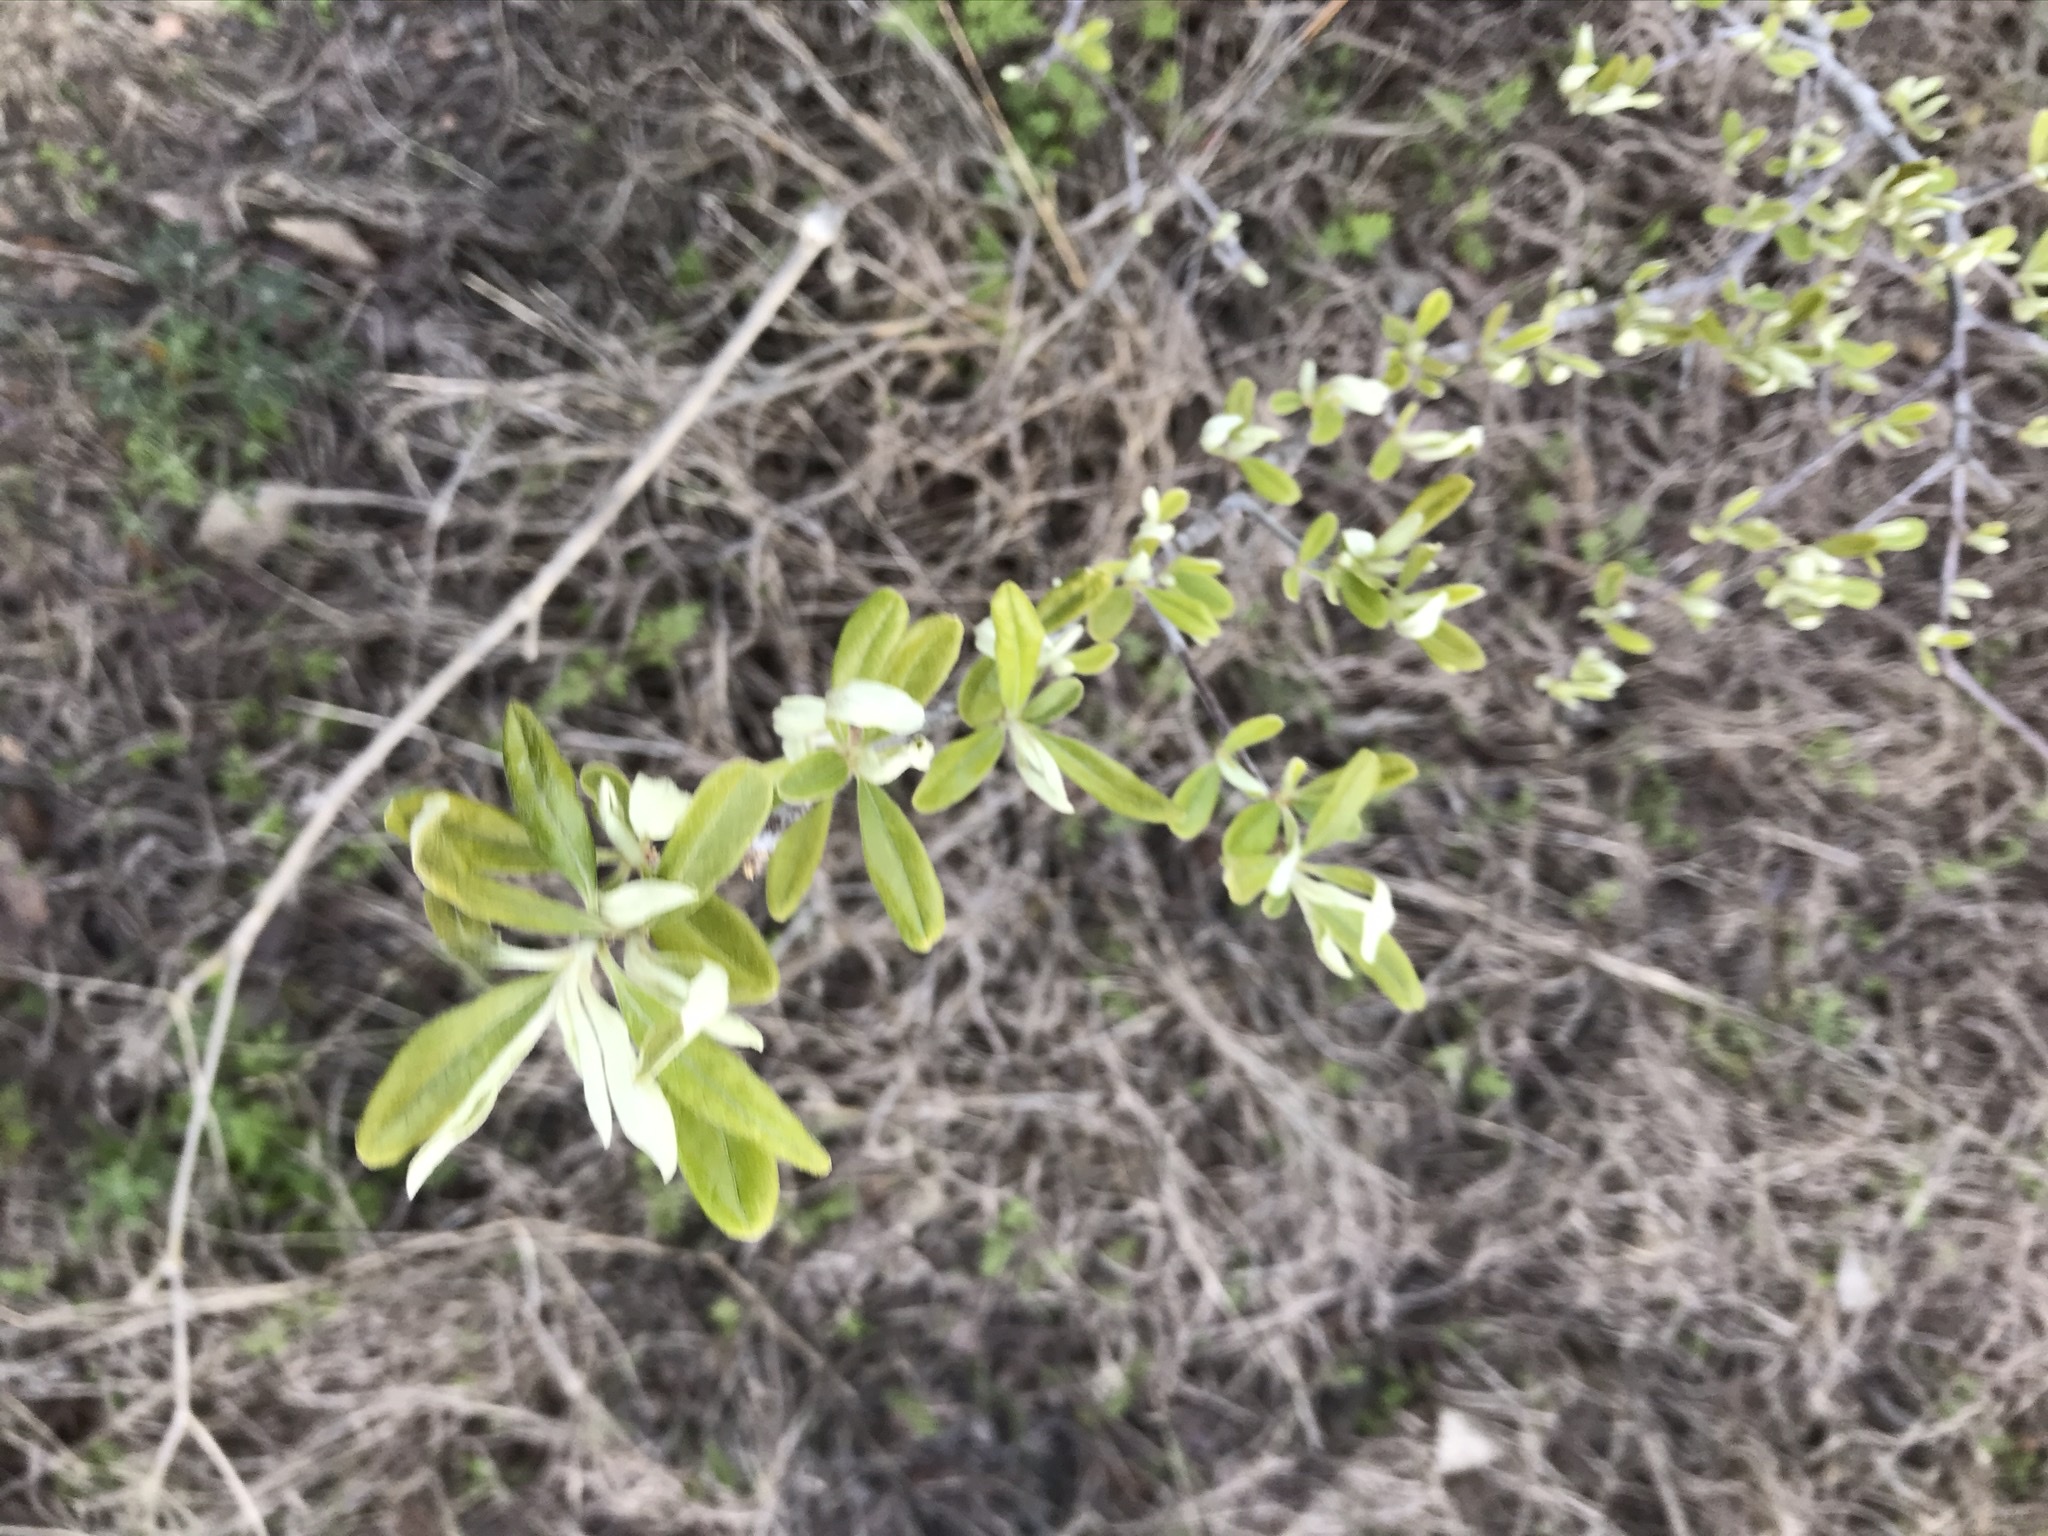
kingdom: Plantae
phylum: Tracheophyta
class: Magnoliopsida
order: Ericales
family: Sapotaceae
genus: Sideroxylon
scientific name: Sideroxylon lanuginosum
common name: Chittamwood
